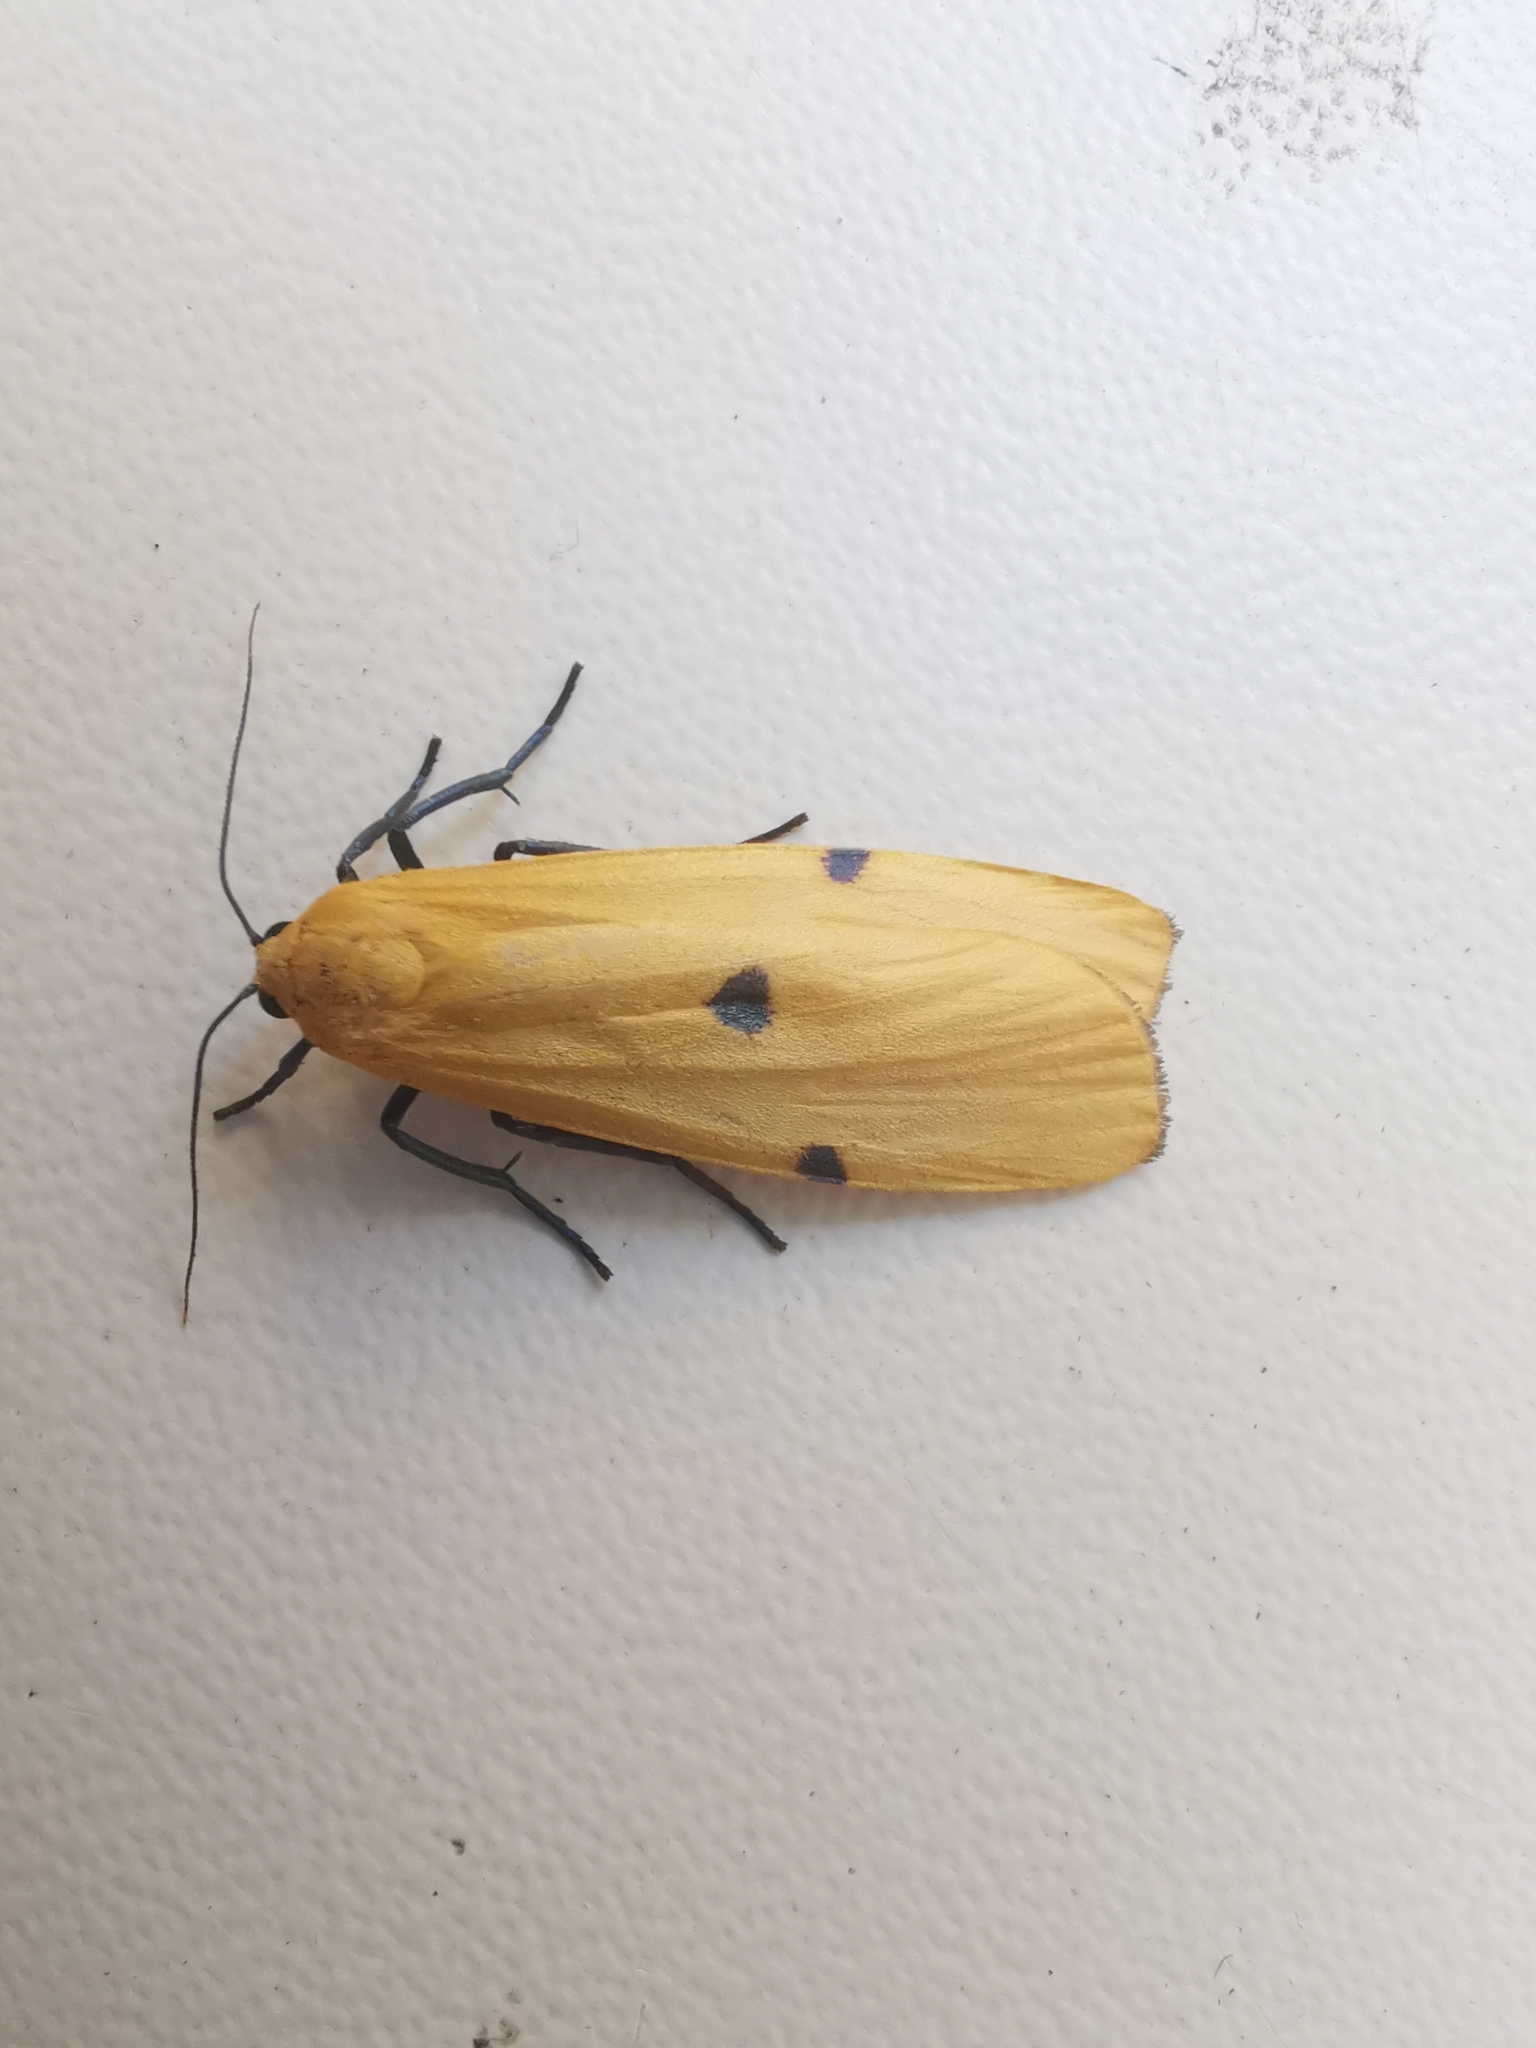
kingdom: Animalia
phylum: Arthropoda
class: Insecta
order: Lepidoptera
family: Erebidae
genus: Lithosia
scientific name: Lithosia quadra
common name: Four-spotted footman
